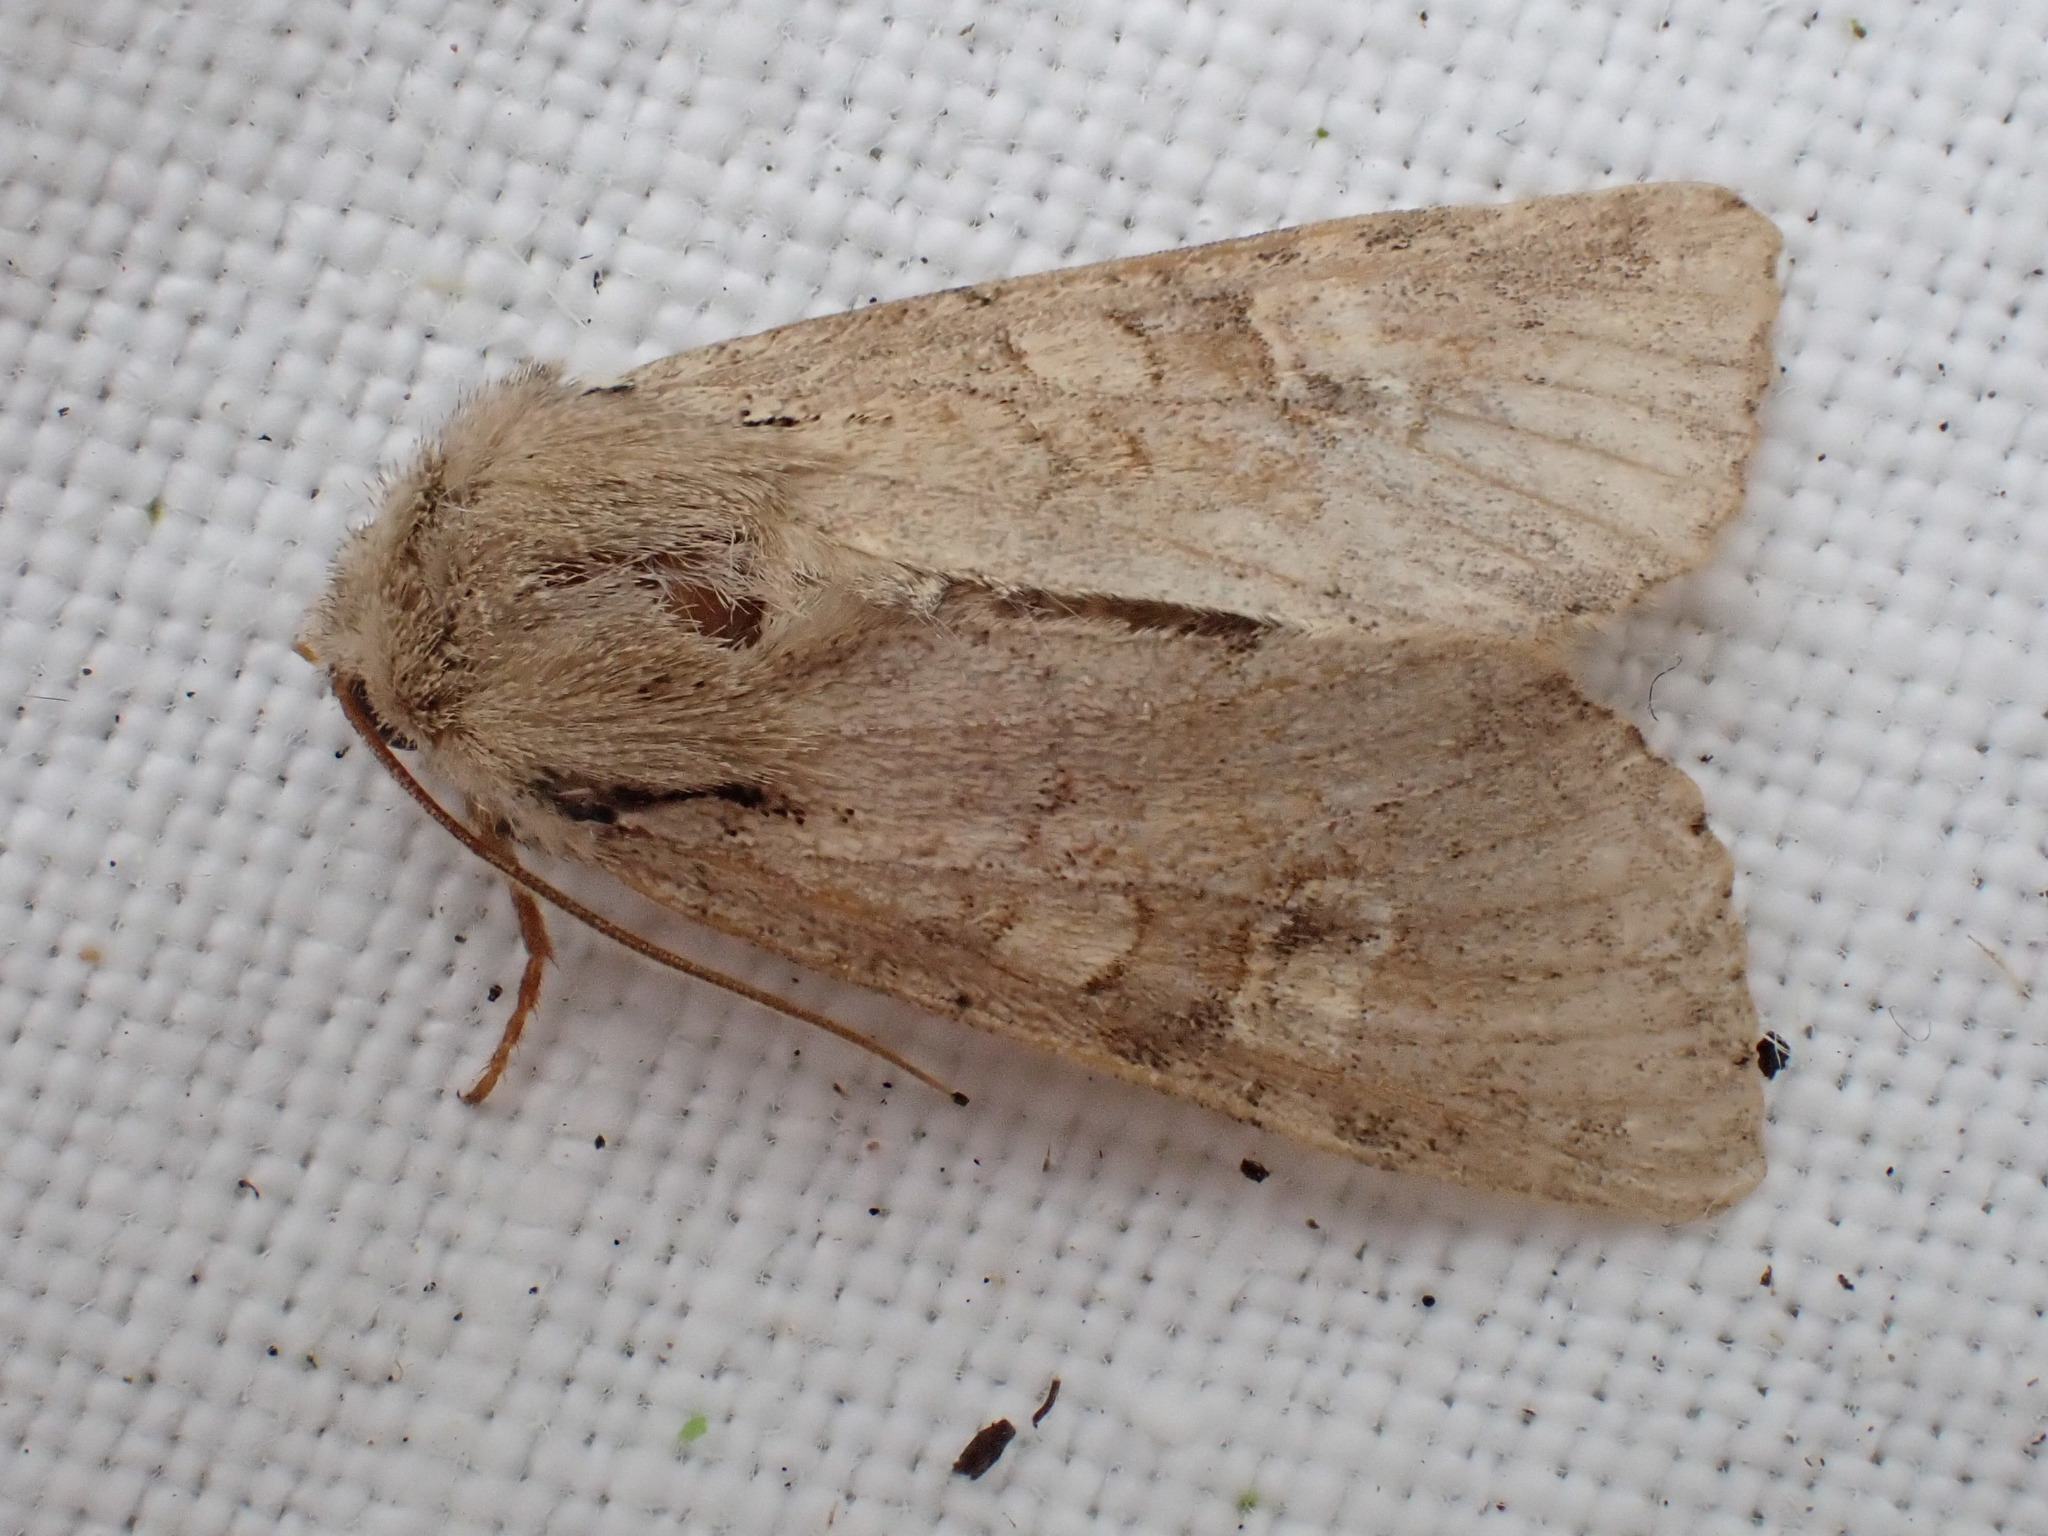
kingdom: Animalia
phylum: Arthropoda
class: Insecta
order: Lepidoptera
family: Noctuidae
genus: Apamea
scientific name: Apamea sordens
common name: Rustic shoulder-knot
